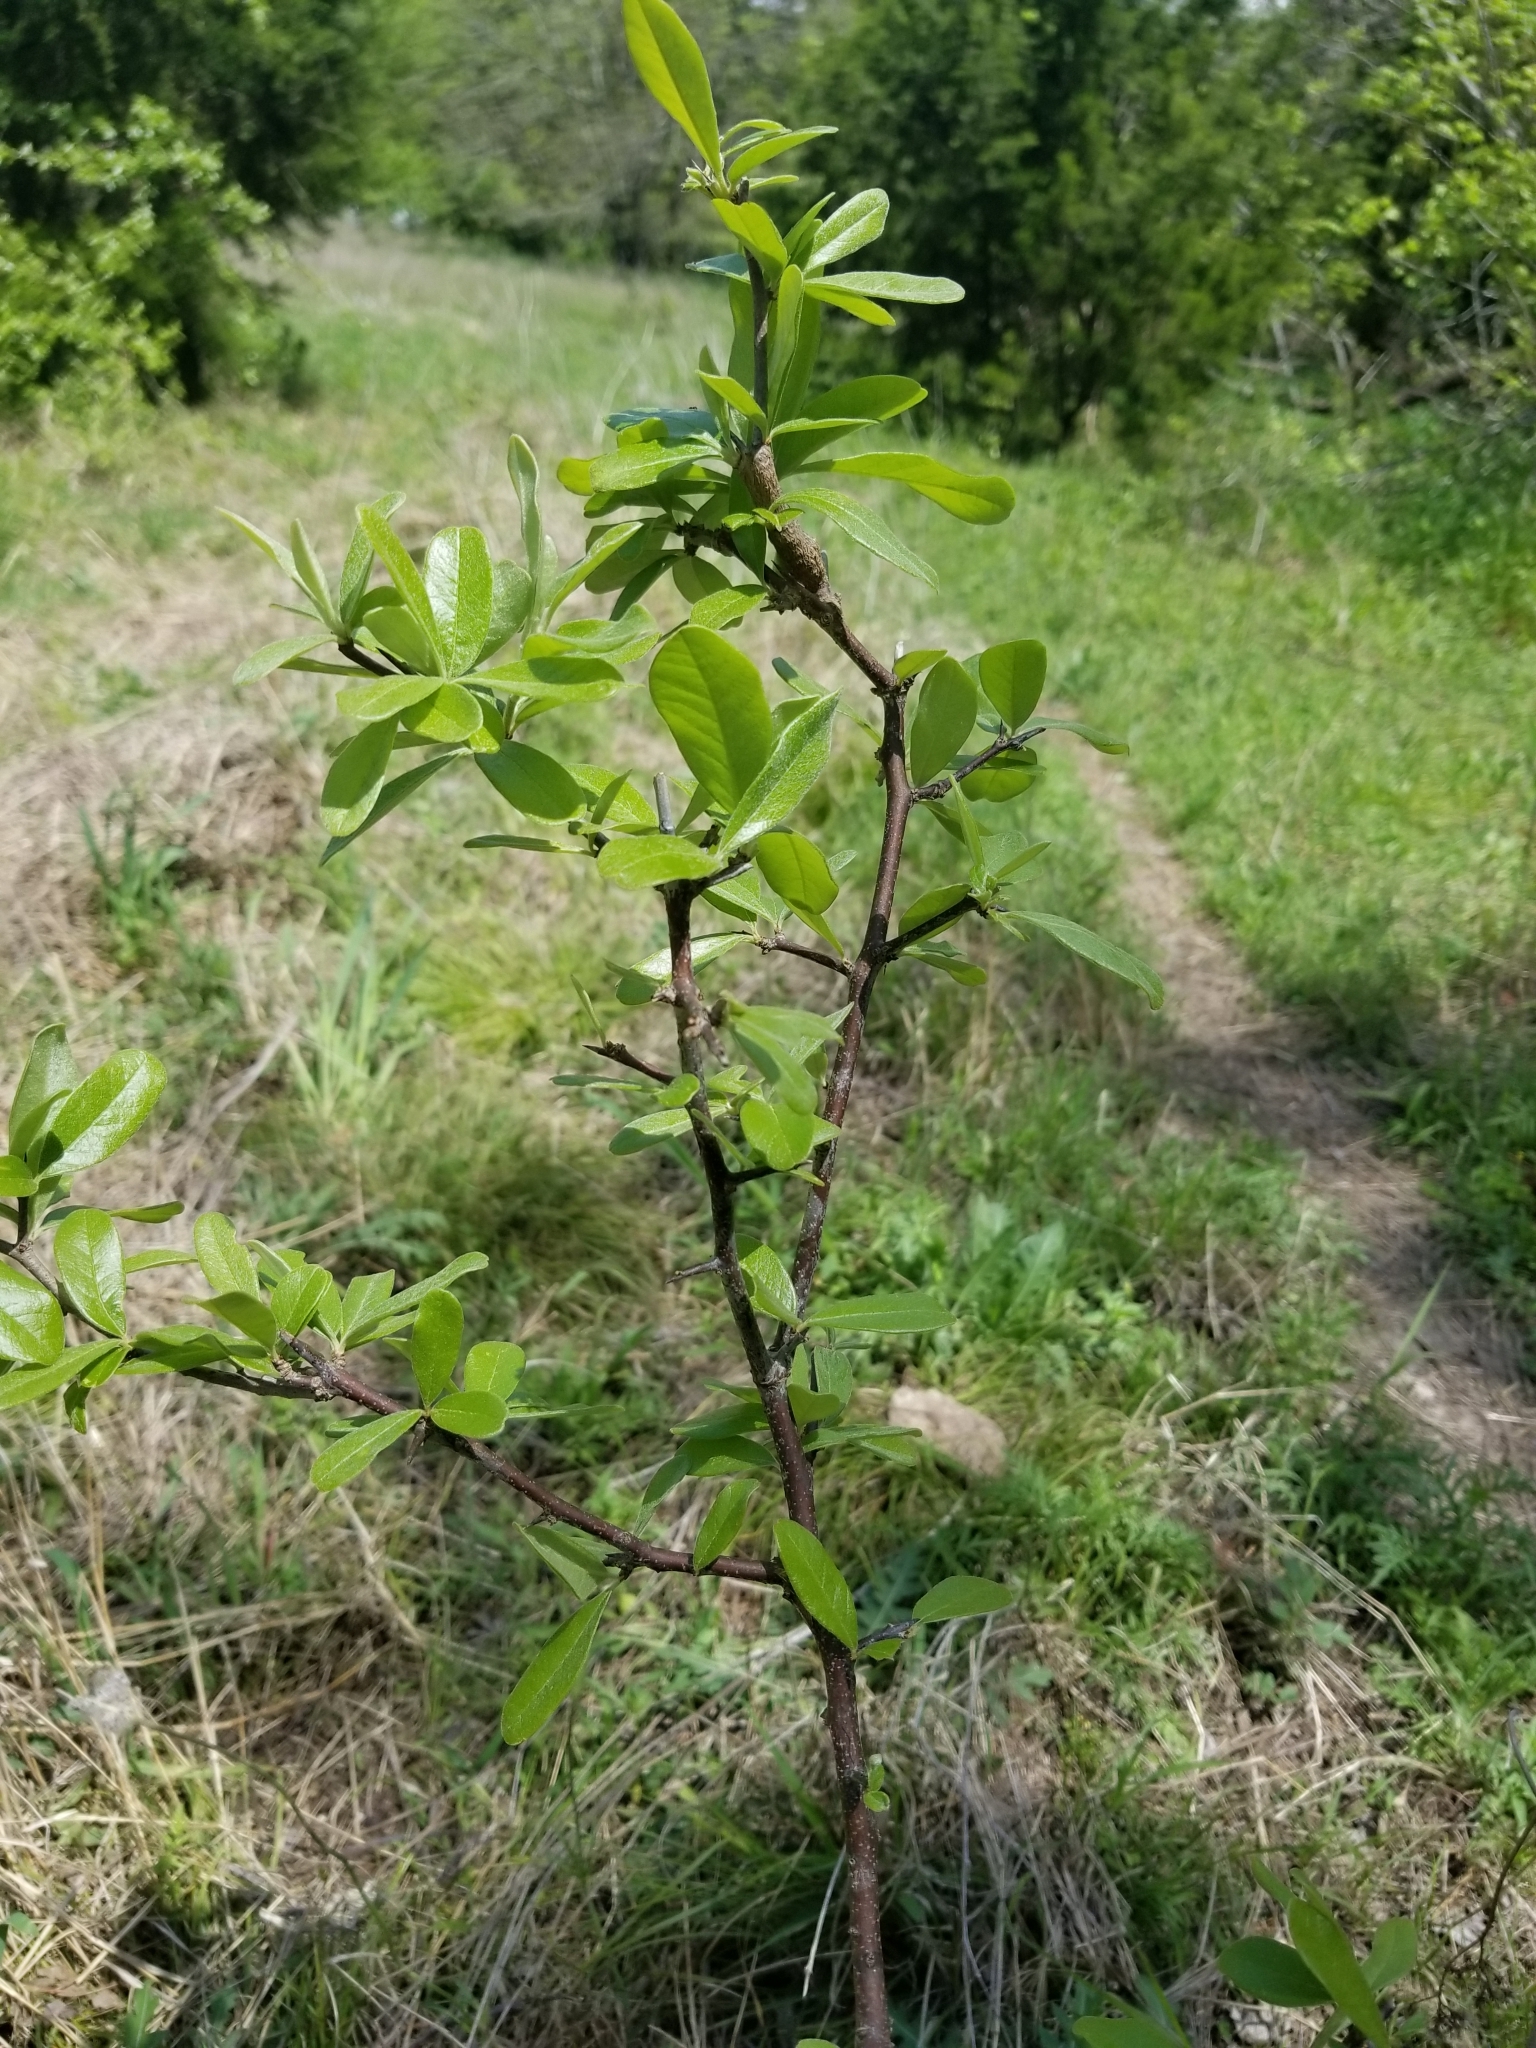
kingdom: Plantae
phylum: Tracheophyta
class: Magnoliopsida
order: Ericales
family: Sapotaceae
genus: Sideroxylon
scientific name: Sideroxylon lanuginosum
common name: Chittamwood
